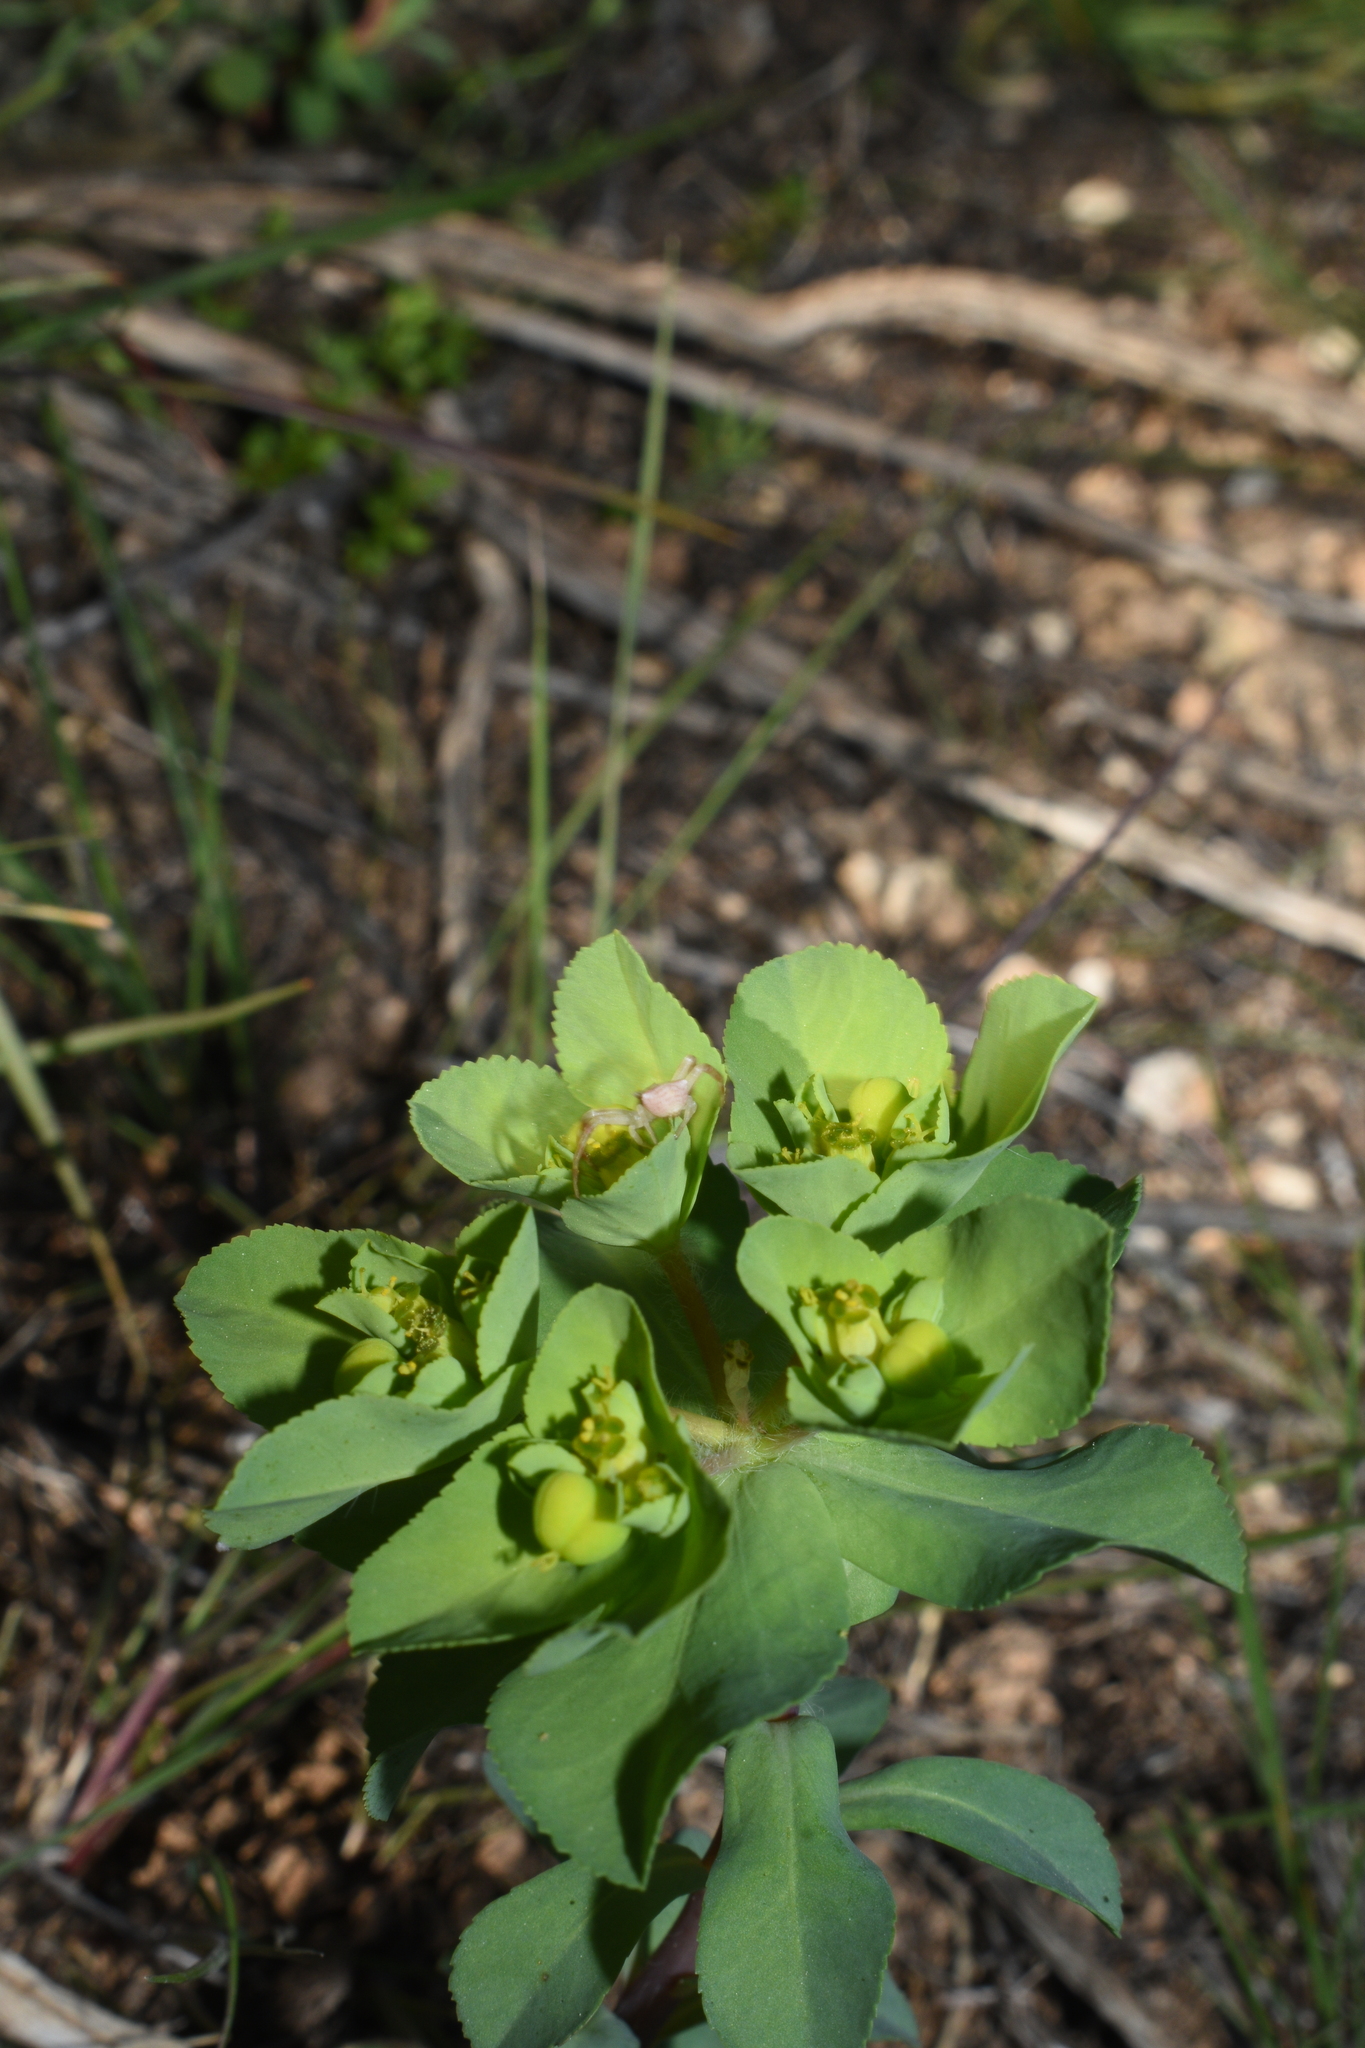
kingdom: Plantae
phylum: Tracheophyta
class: Magnoliopsida
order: Malpighiales
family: Euphorbiaceae
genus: Euphorbia
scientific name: Euphorbia helioscopia
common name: Sun spurge
